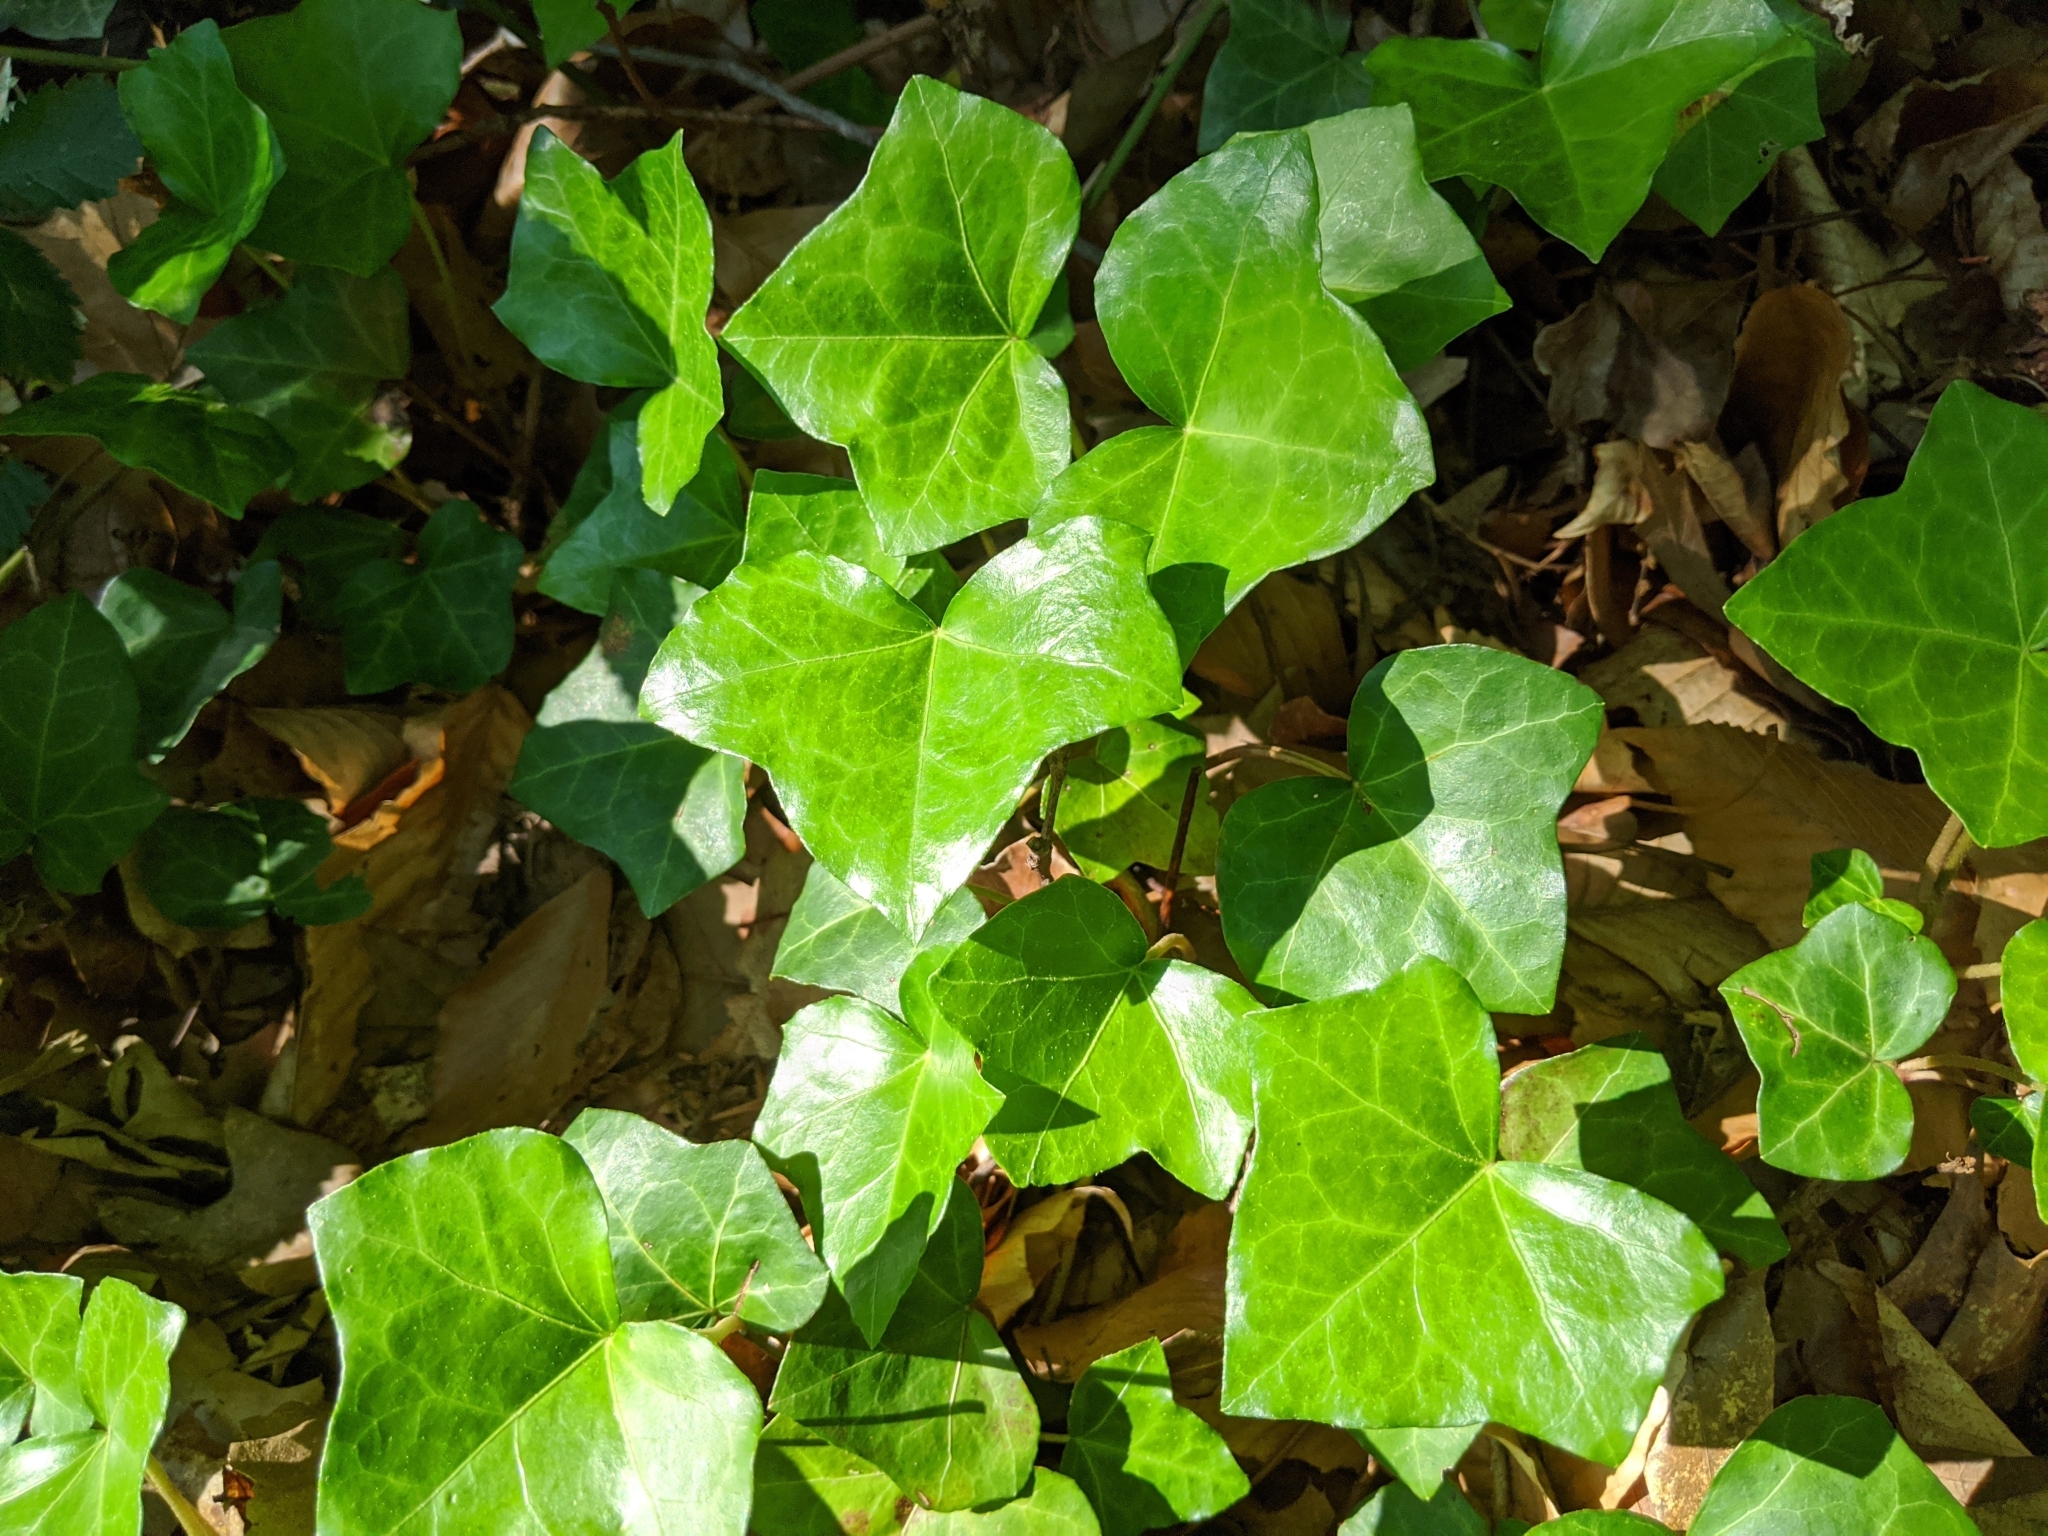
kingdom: Plantae
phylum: Tracheophyta
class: Magnoliopsida
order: Apiales
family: Araliaceae
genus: Hedera
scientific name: Hedera helix
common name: Ivy
